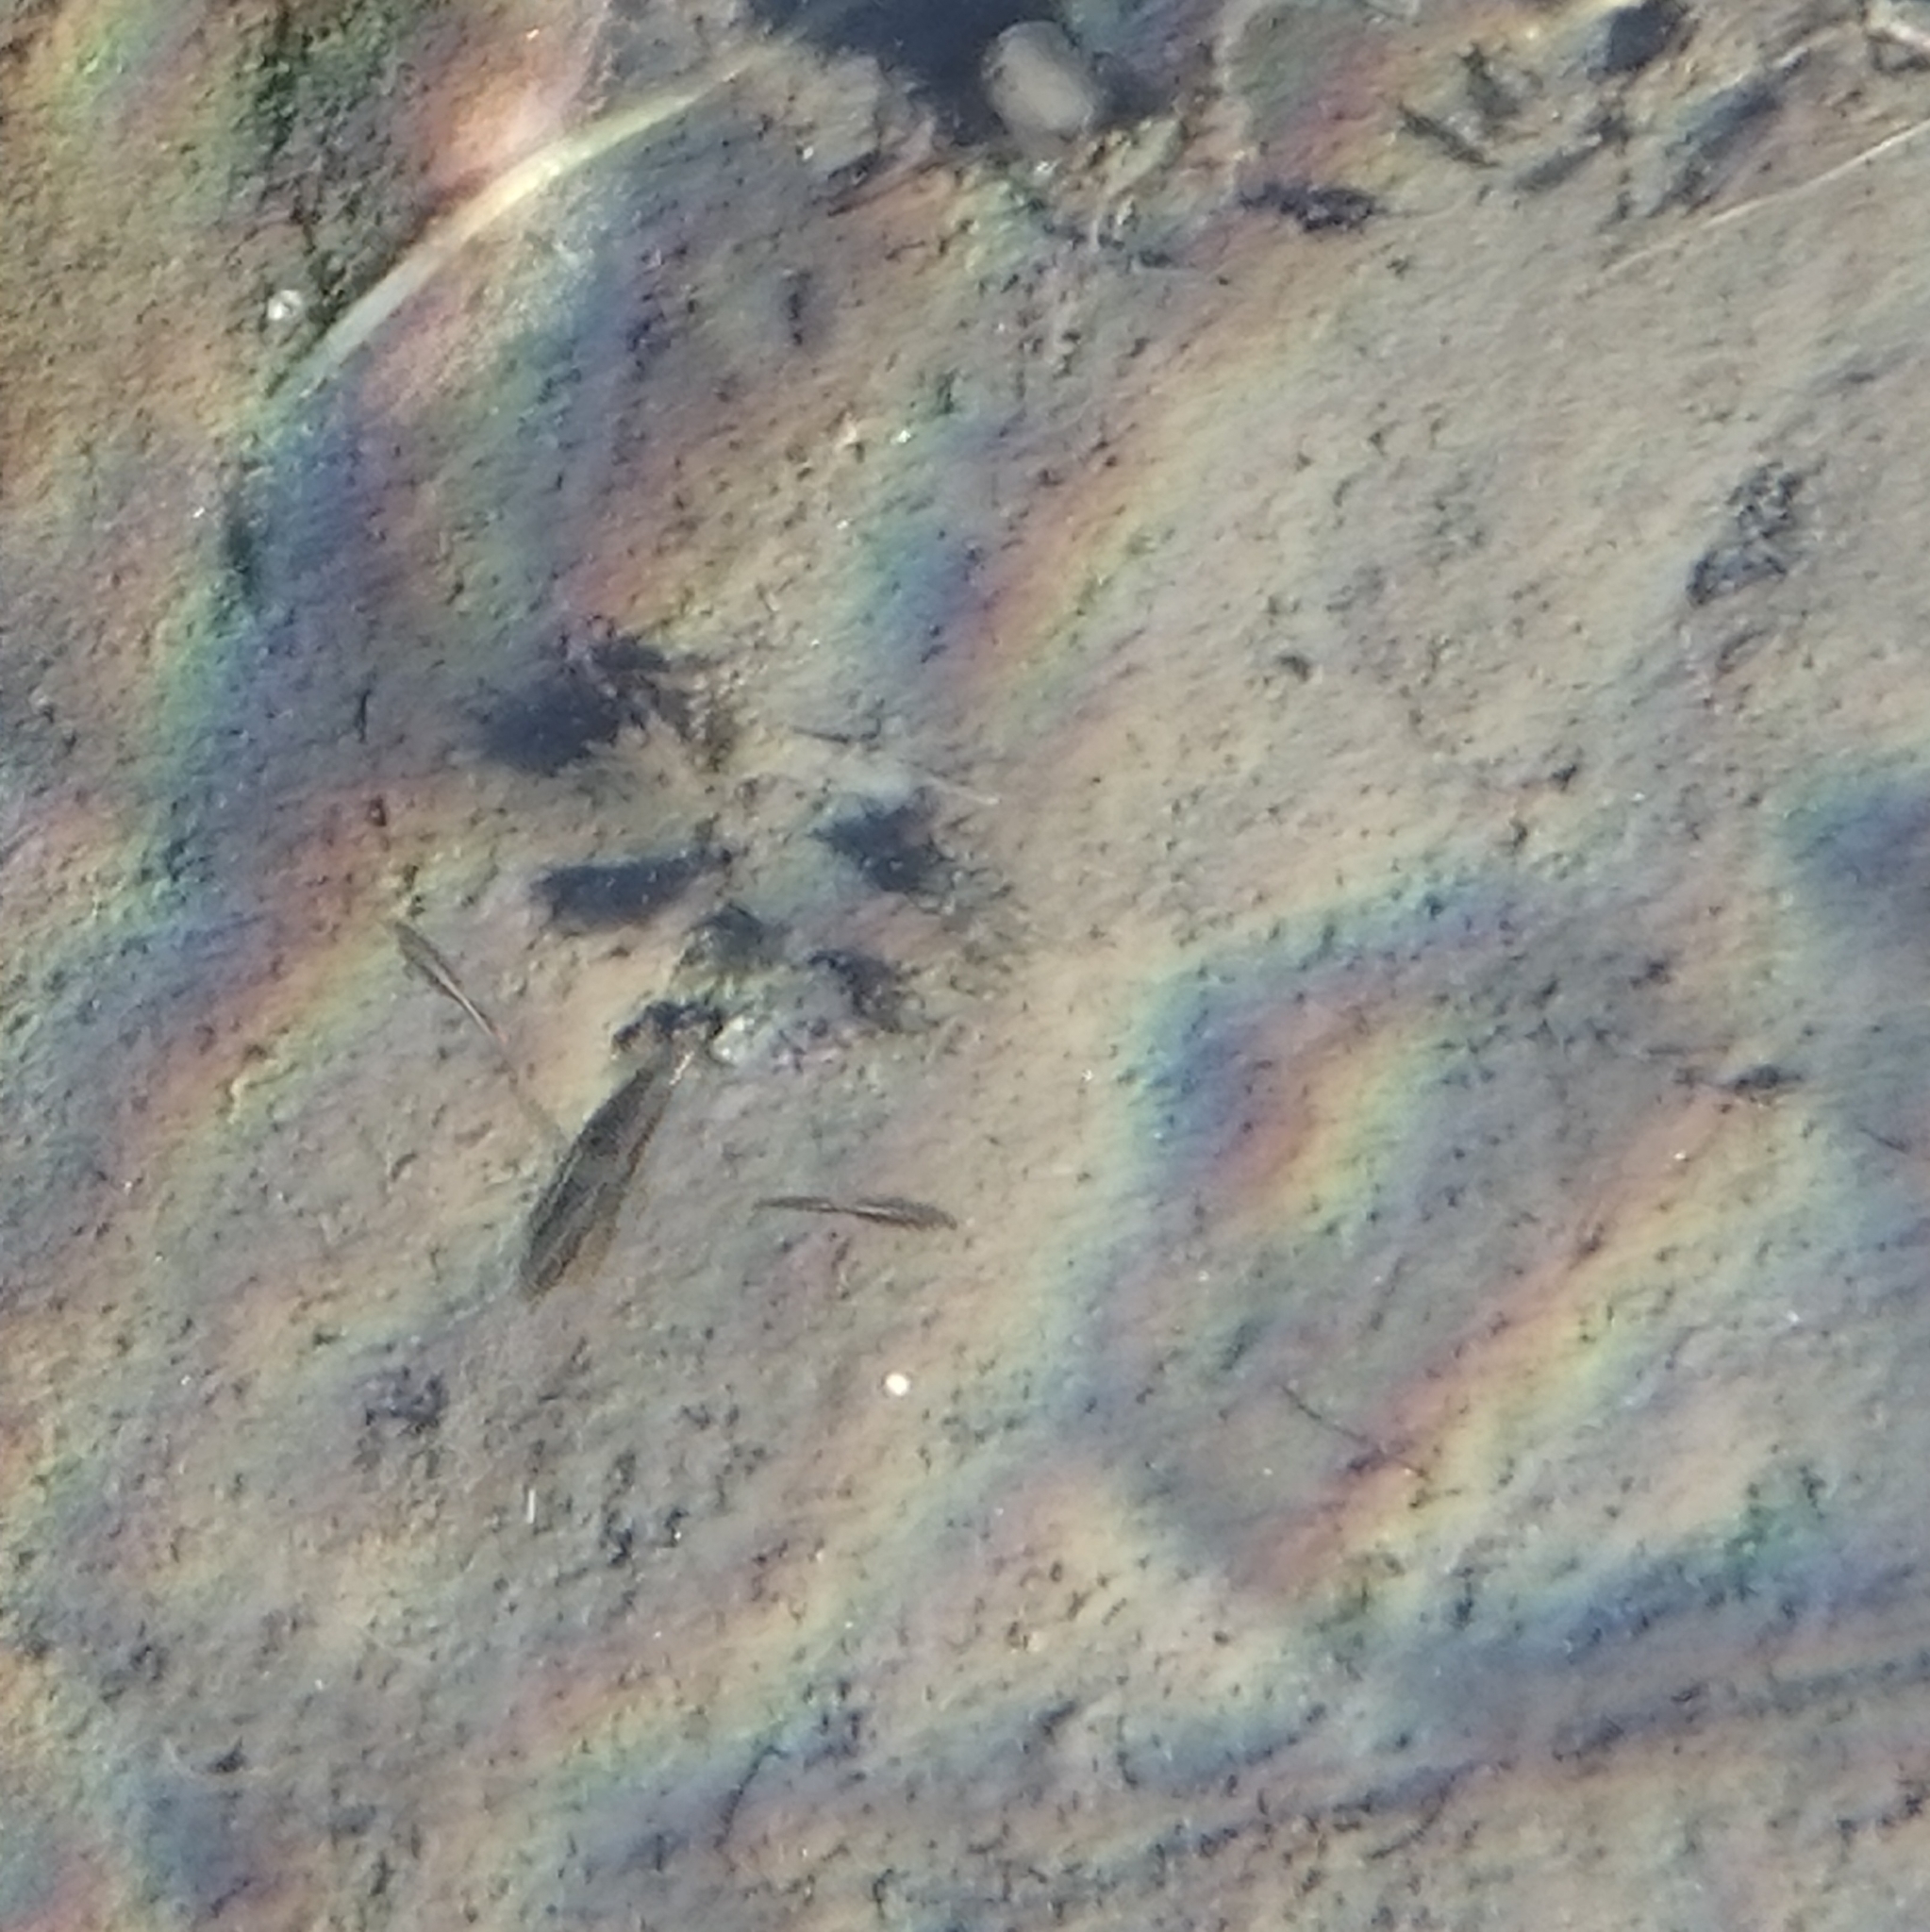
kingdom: Animalia
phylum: Arthropoda
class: Insecta
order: Hemiptera
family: Notonectidae
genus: Notonecta
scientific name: Notonecta
